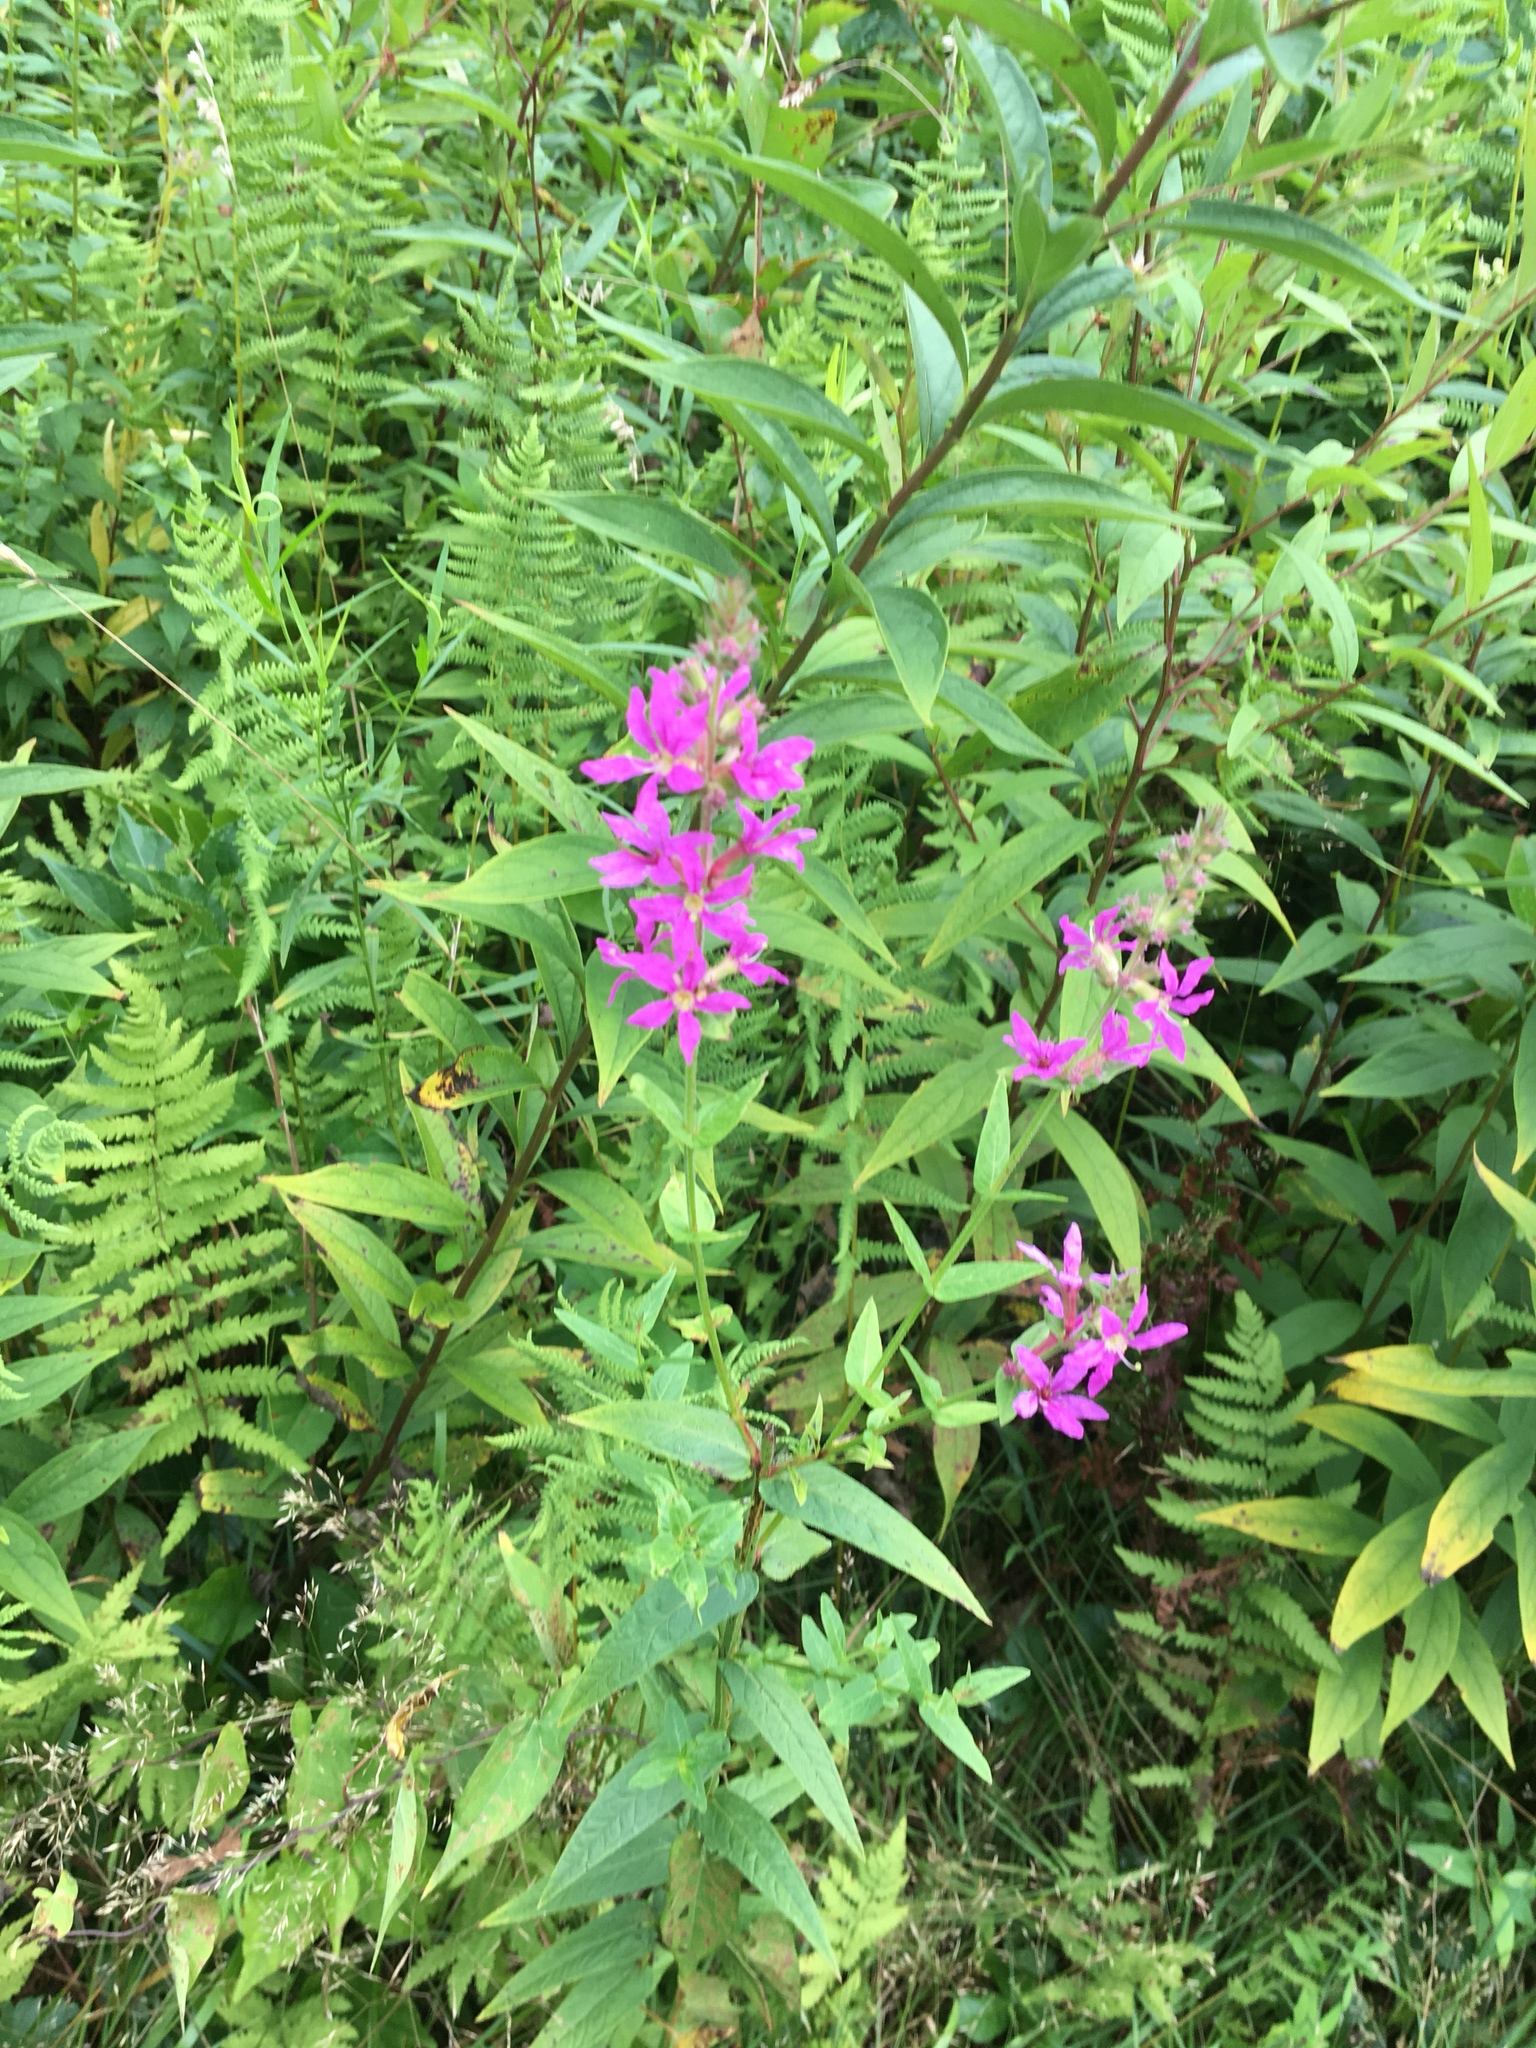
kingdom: Plantae
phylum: Tracheophyta
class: Magnoliopsida
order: Myrtales
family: Lythraceae
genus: Lythrum
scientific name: Lythrum salicaria
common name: Purple loosestrife
